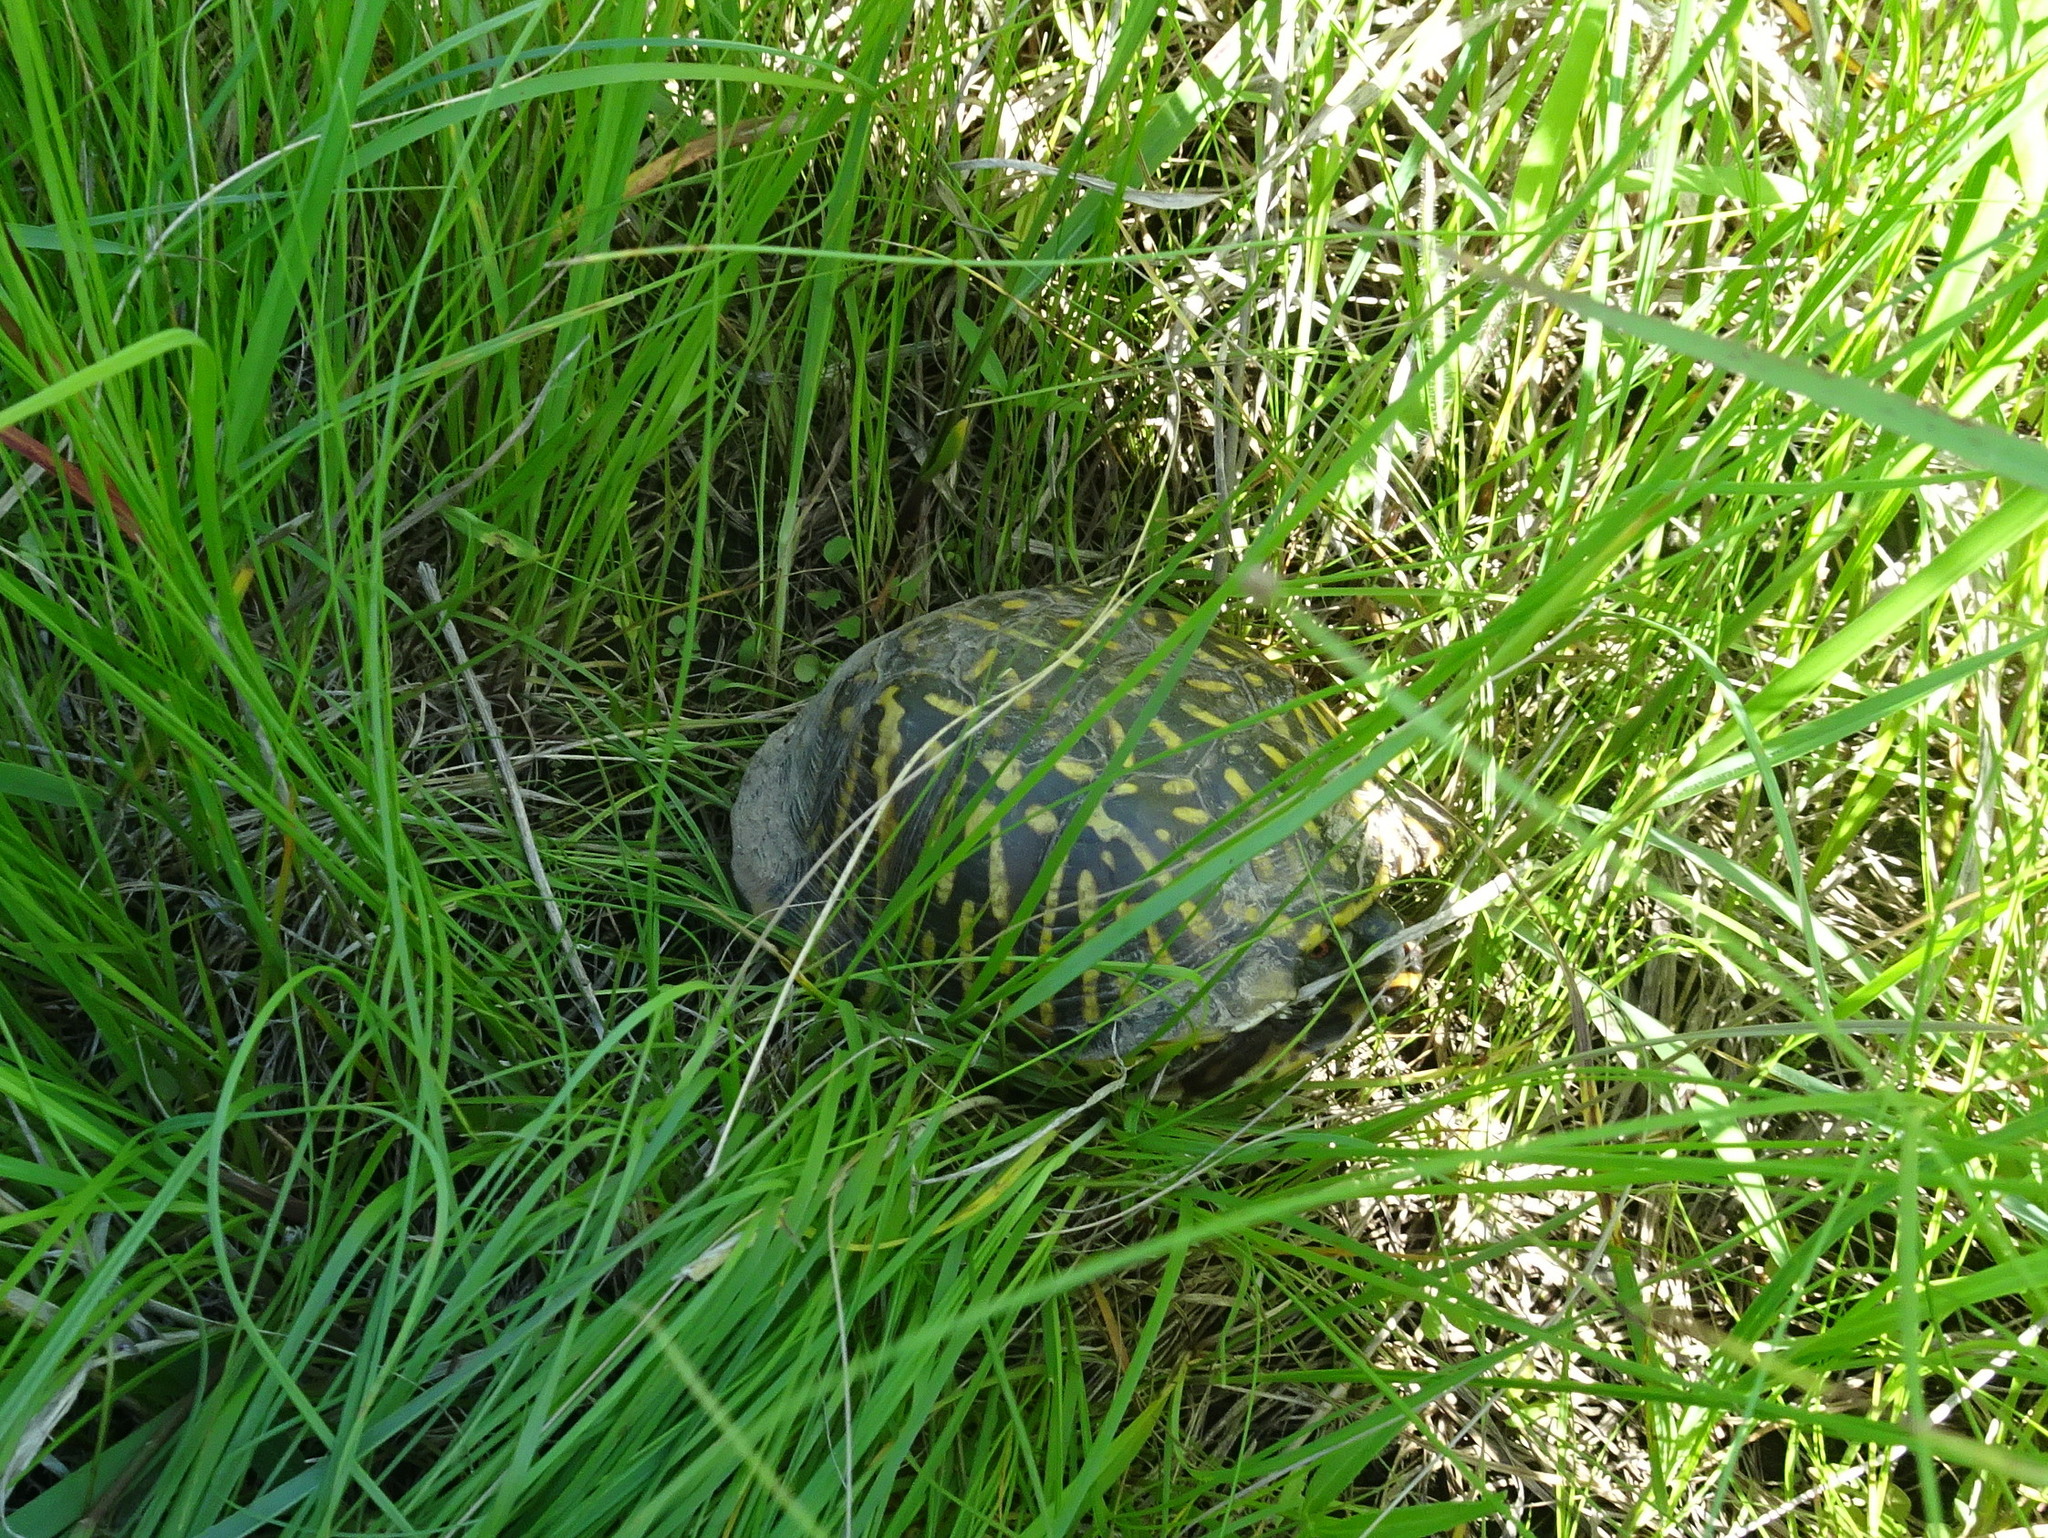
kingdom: Animalia
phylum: Chordata
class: Testudines
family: Emydidae
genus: Terrapene
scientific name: Terrapene ornata
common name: Western box turtle
